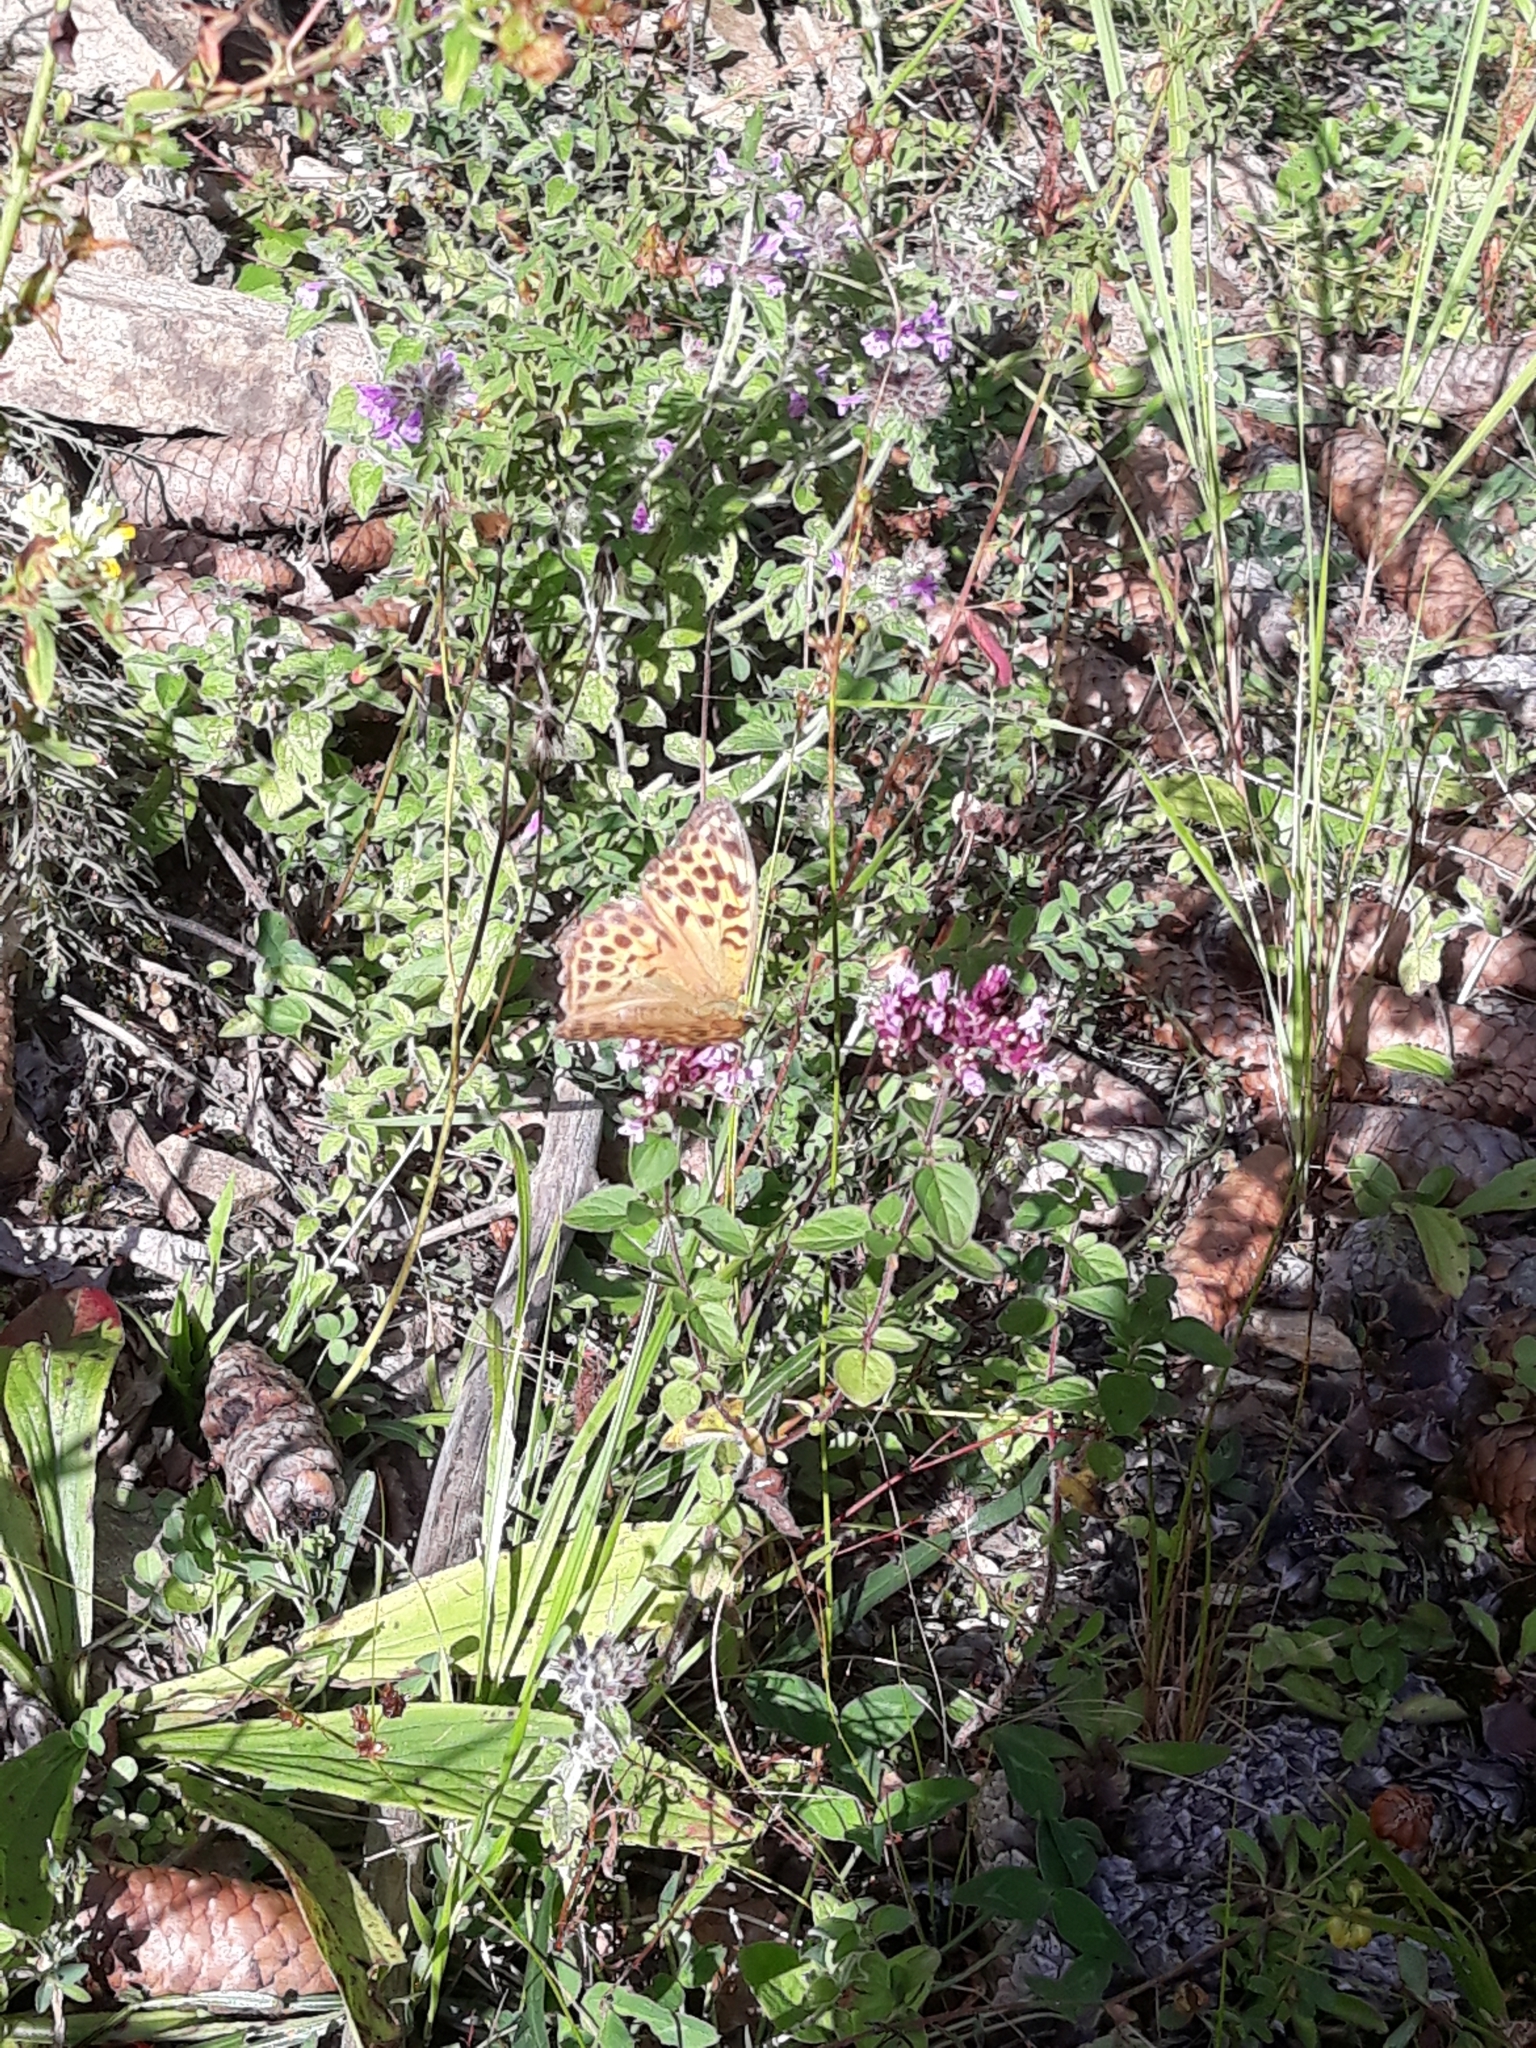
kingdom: Animalia
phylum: Arthropoda
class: Insecta
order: Lepidoptera
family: Nymphalidae
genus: Argynnis
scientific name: Argynnis paphia
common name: Silver-washed fritillary
